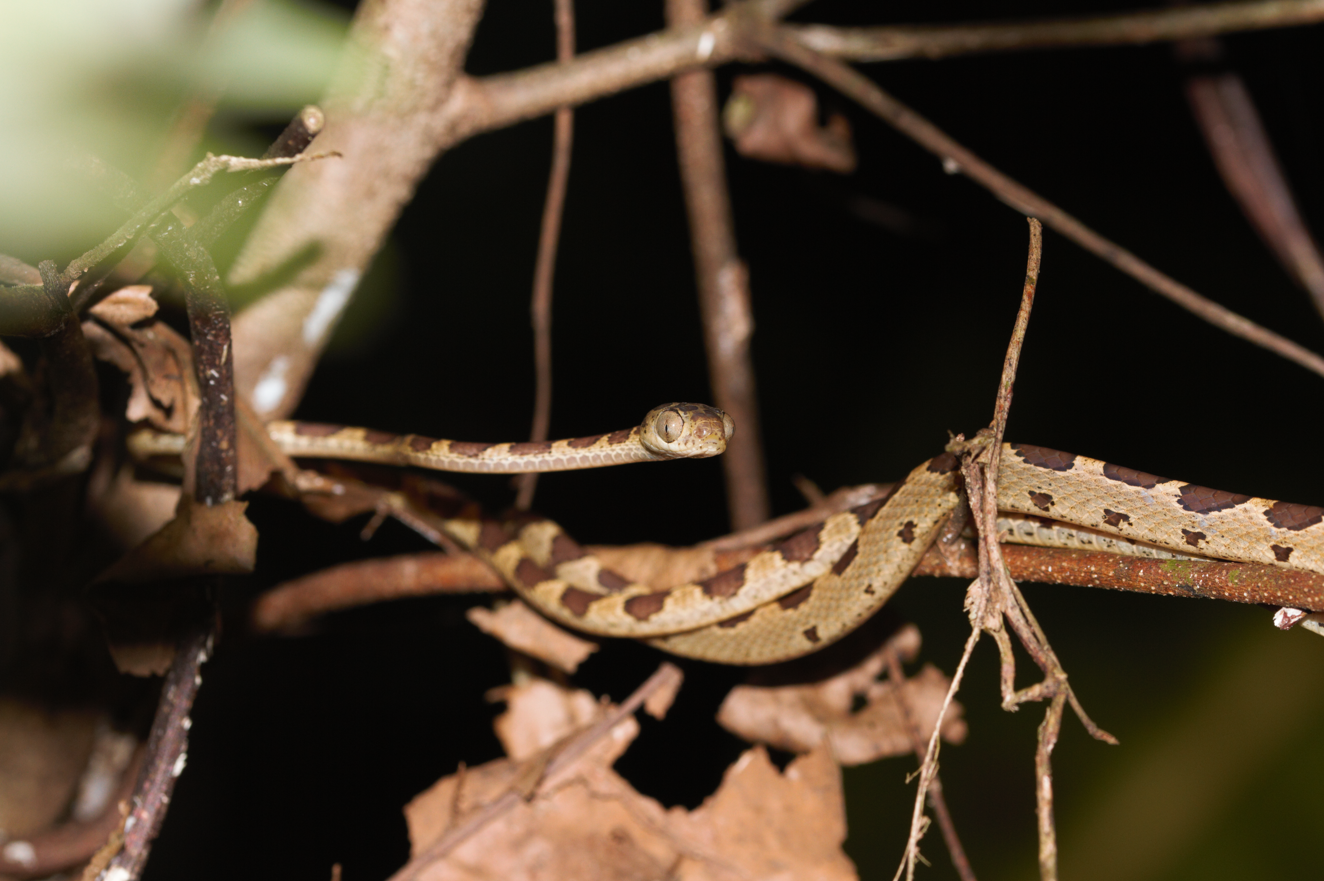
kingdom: Animalia
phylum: Chordata
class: Squamata
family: Colubridae
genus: Imantodes
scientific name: Imantodes cenchoa
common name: Blunthead tree snake
